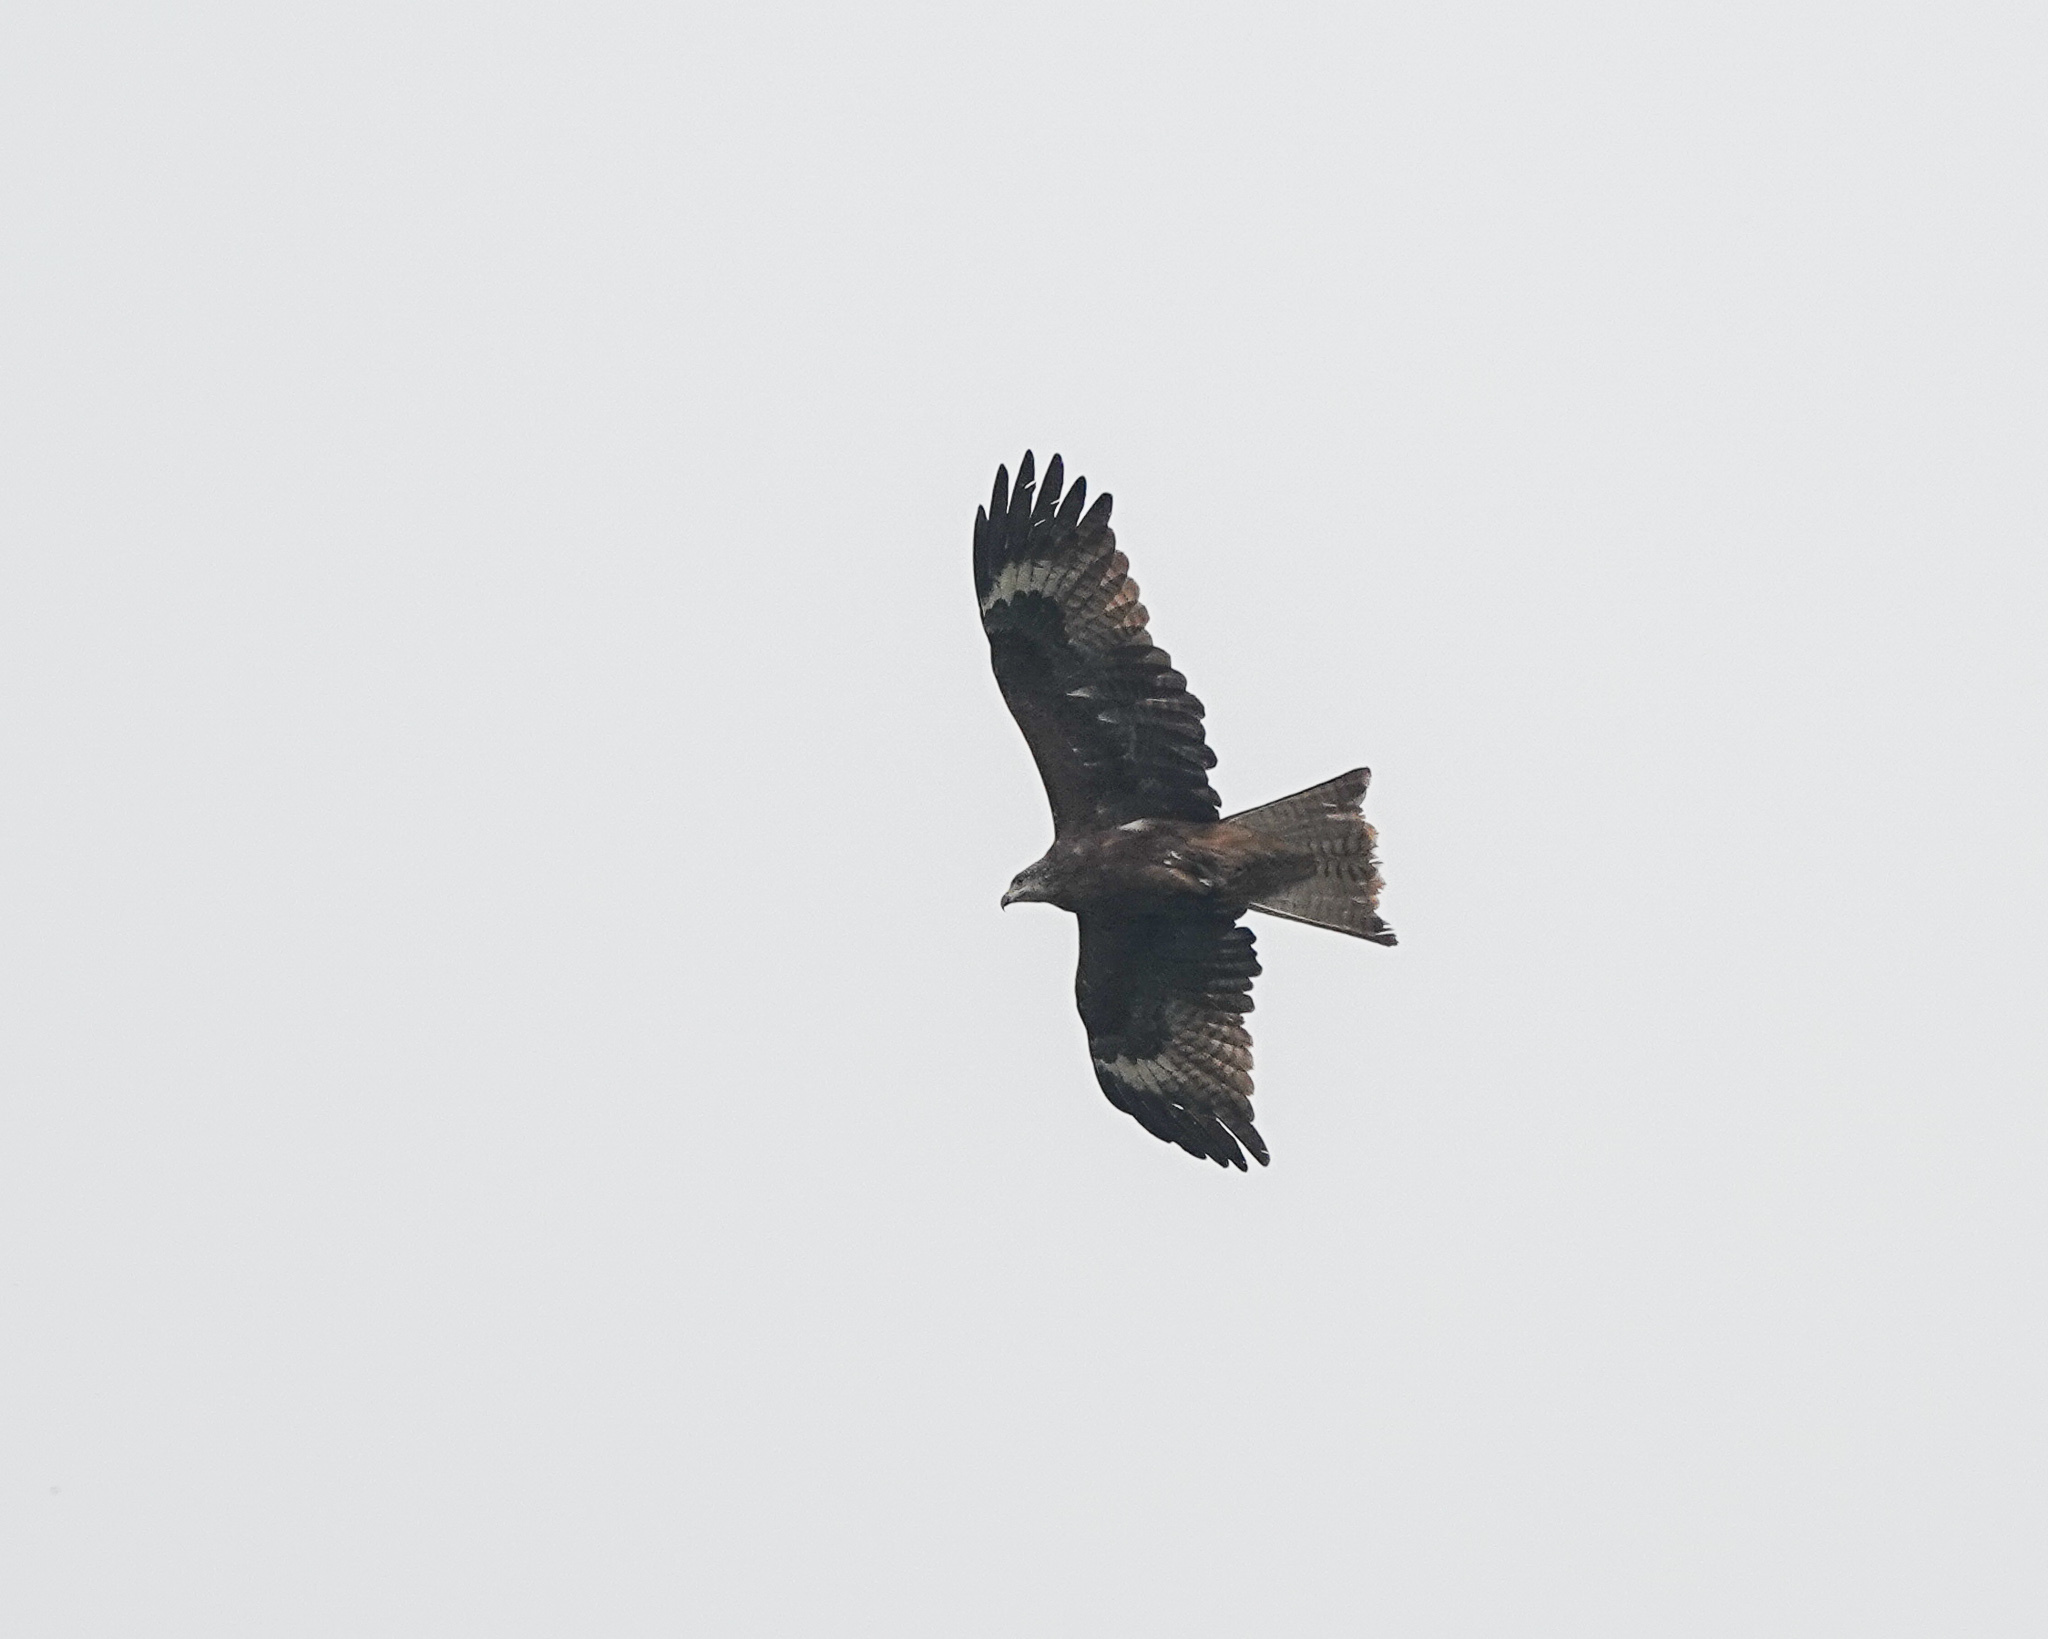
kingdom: Animalia
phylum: Chordata
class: Aves
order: Accipitriformes
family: Accipitridae
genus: Milvus
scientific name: Milvus migrans
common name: Black kite
